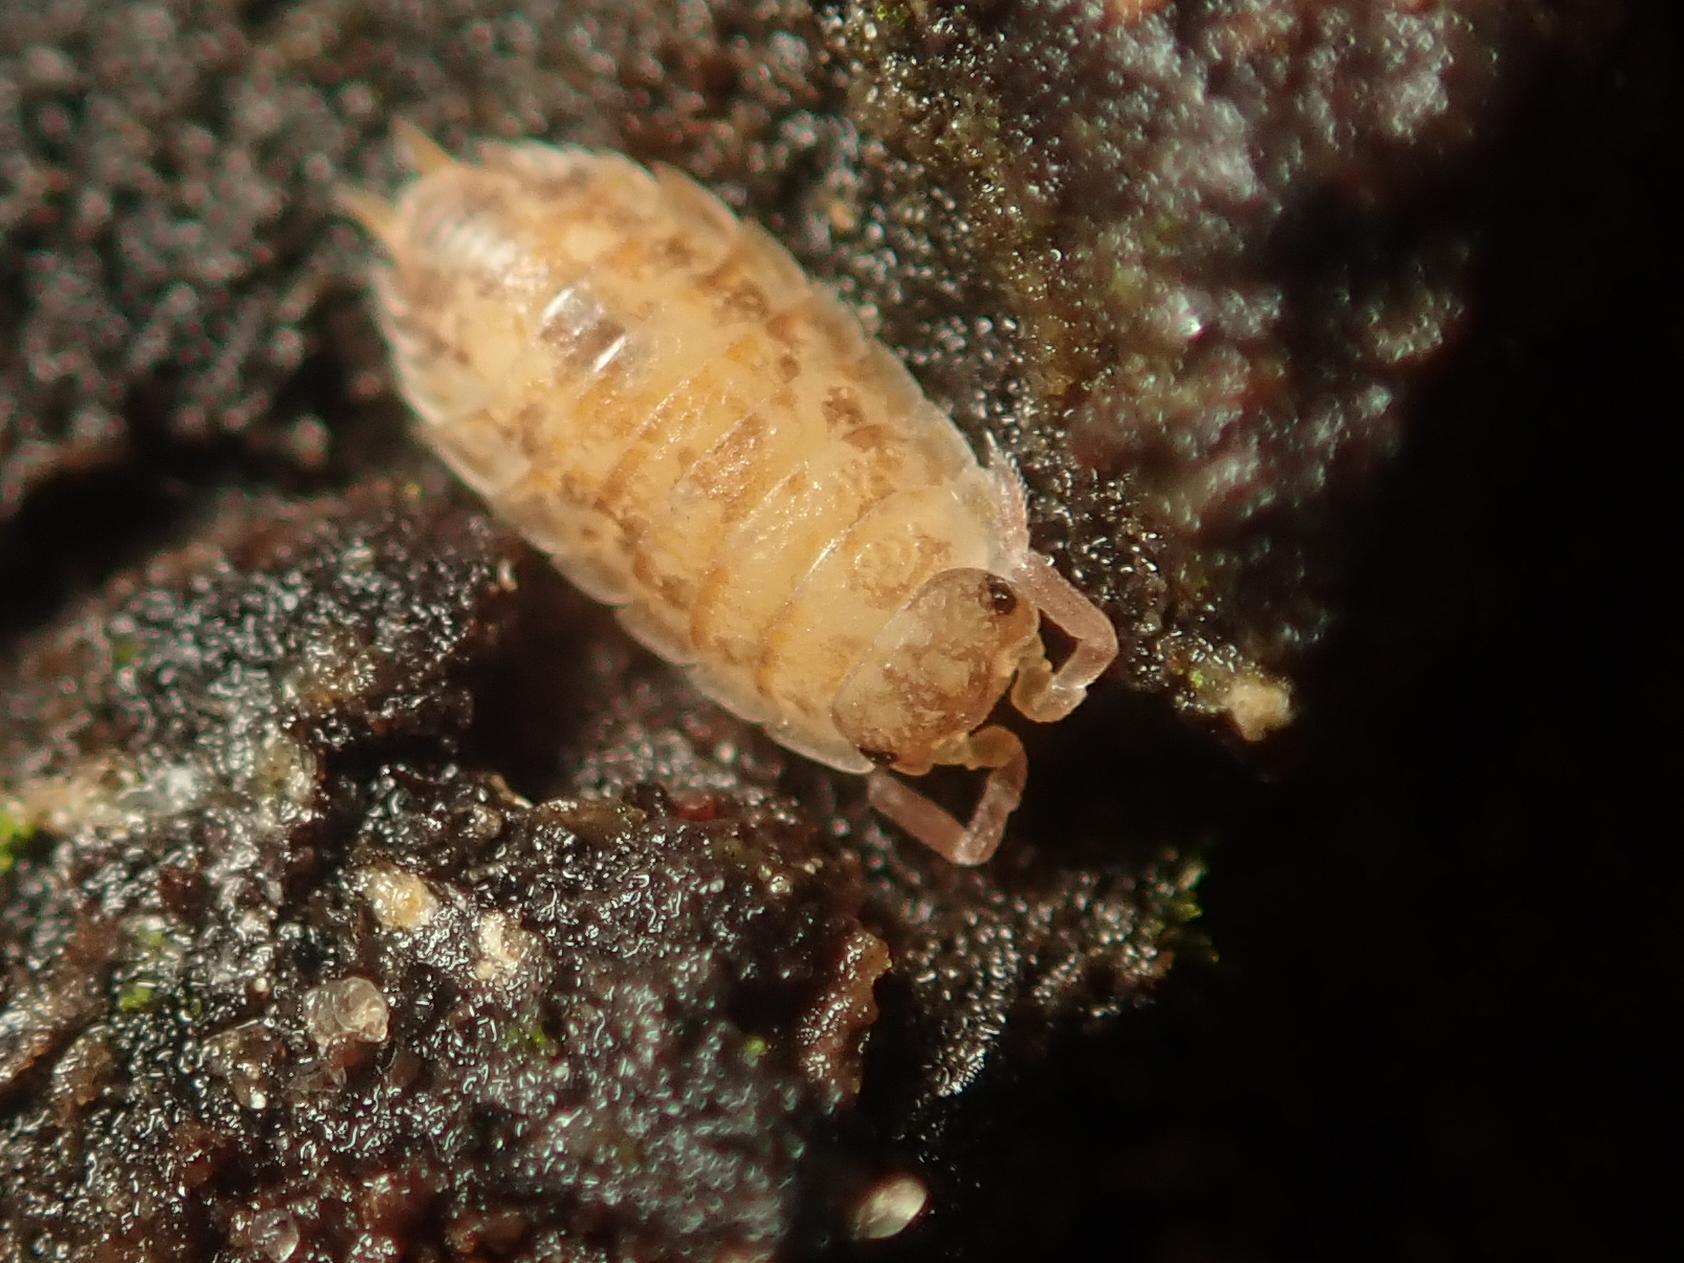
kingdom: Animalia
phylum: Arthropoda
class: Malacostraca
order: Isopoda
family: Porcellionidae
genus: Porcellio
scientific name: Porcellio scaber
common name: Common rough woodlouse
